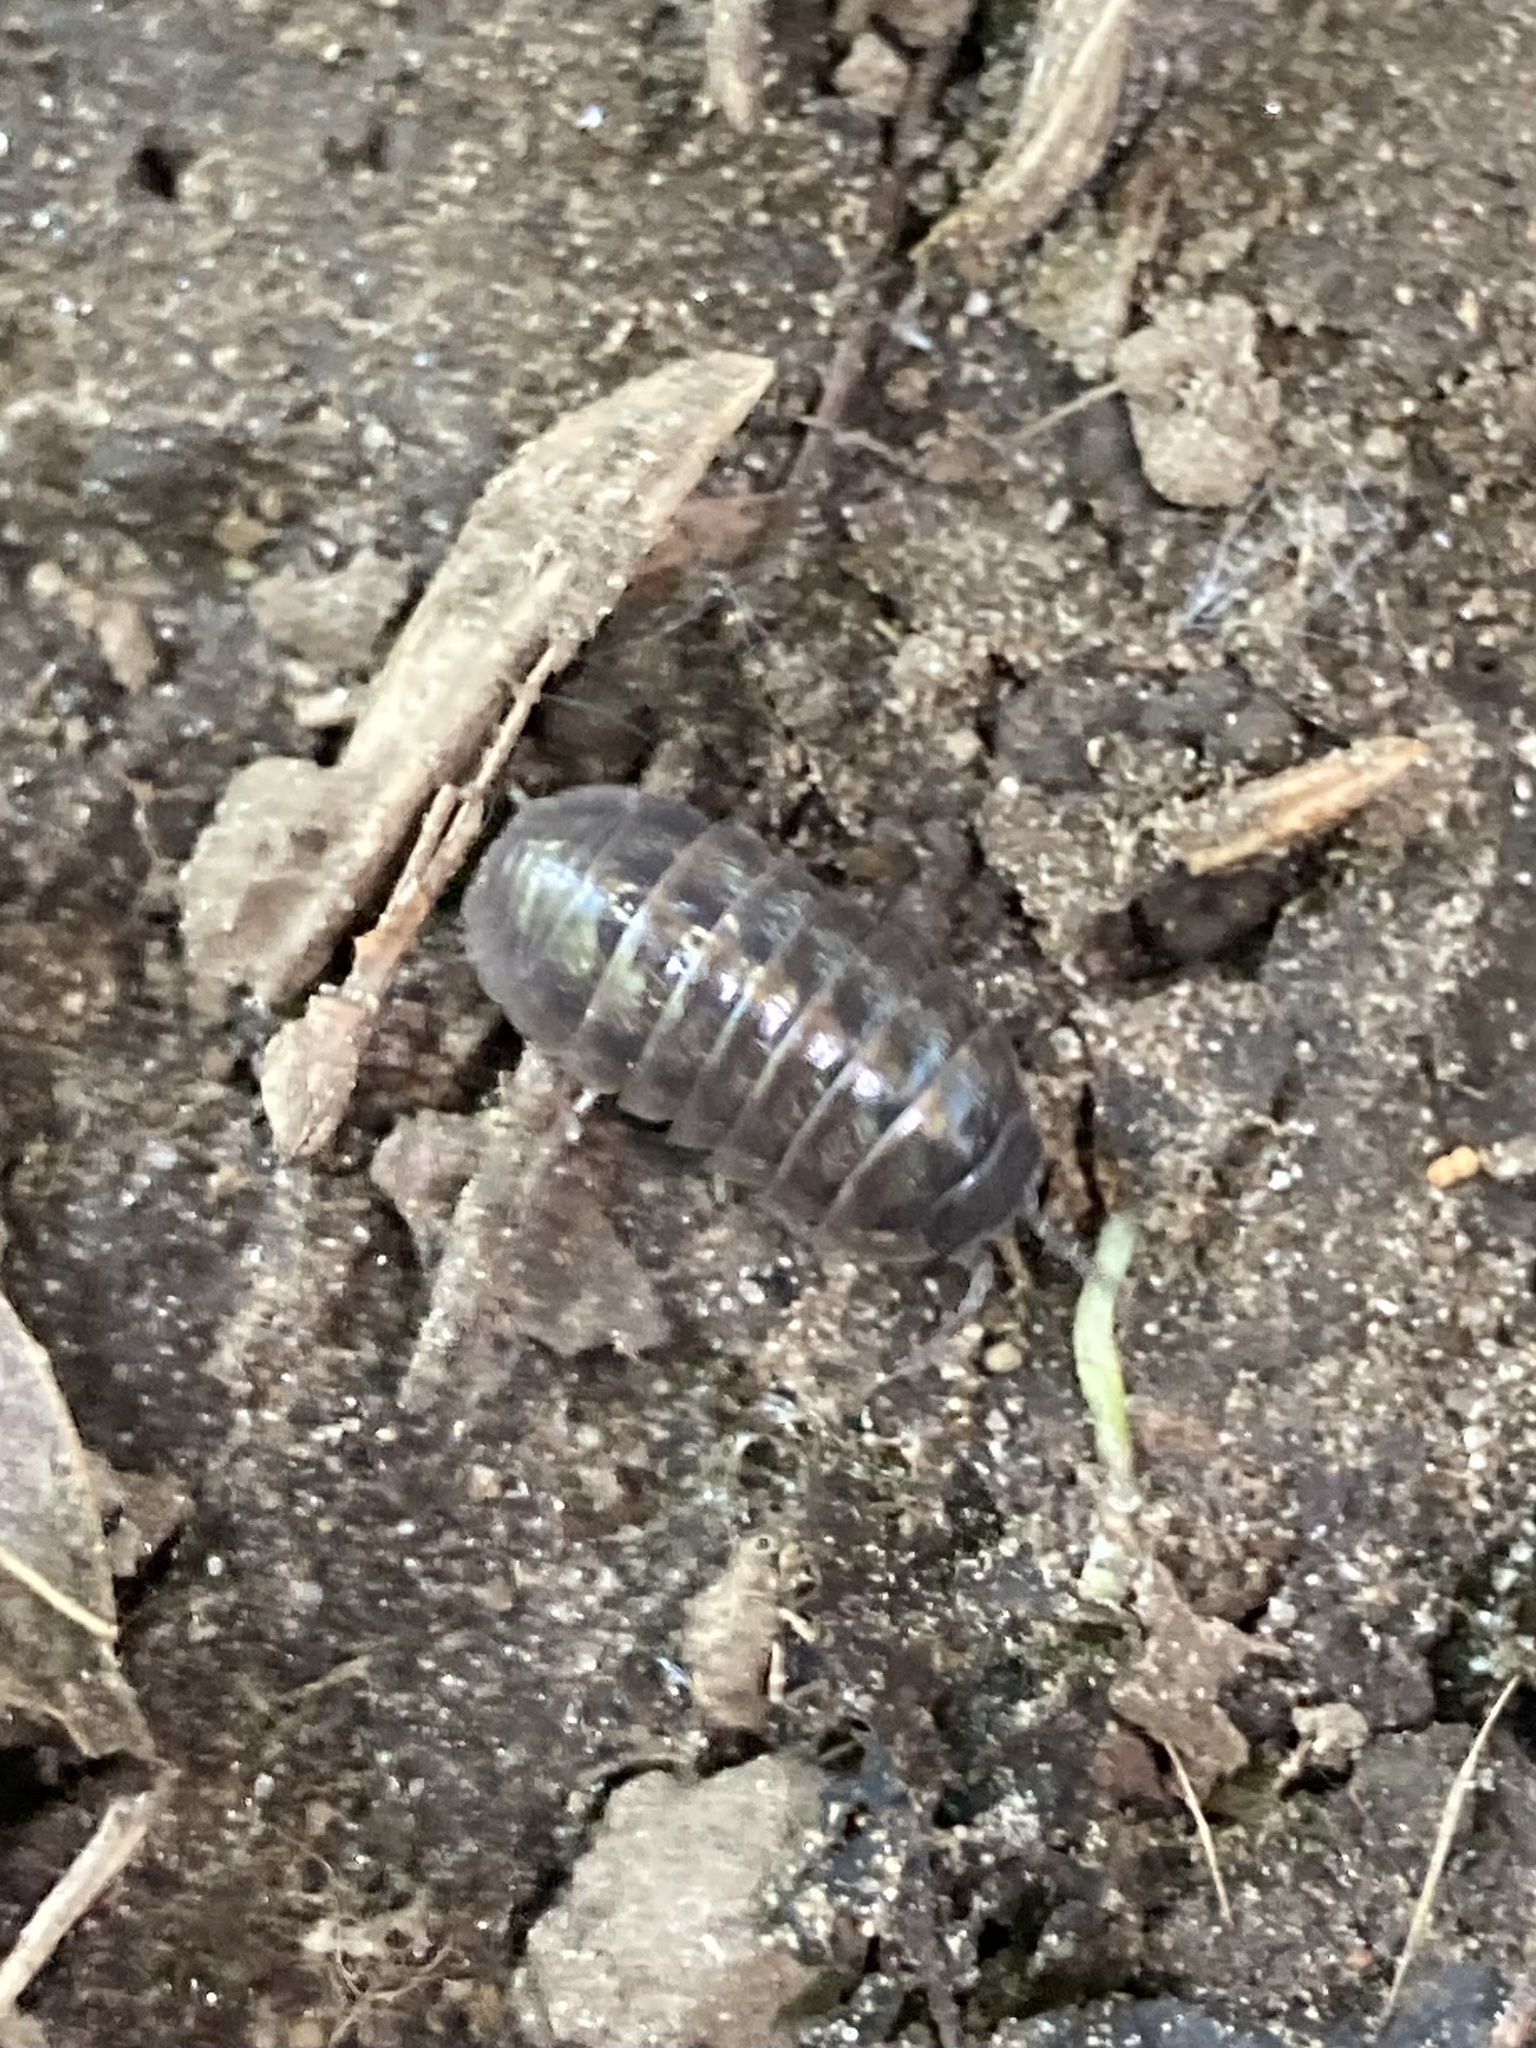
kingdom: Animalia
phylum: Arthropoda
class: Malacostraca
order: Isopoda
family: Armadillidiidae
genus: Armadillidium
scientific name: Armadillidium vulgare
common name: Common pill woodlouse
